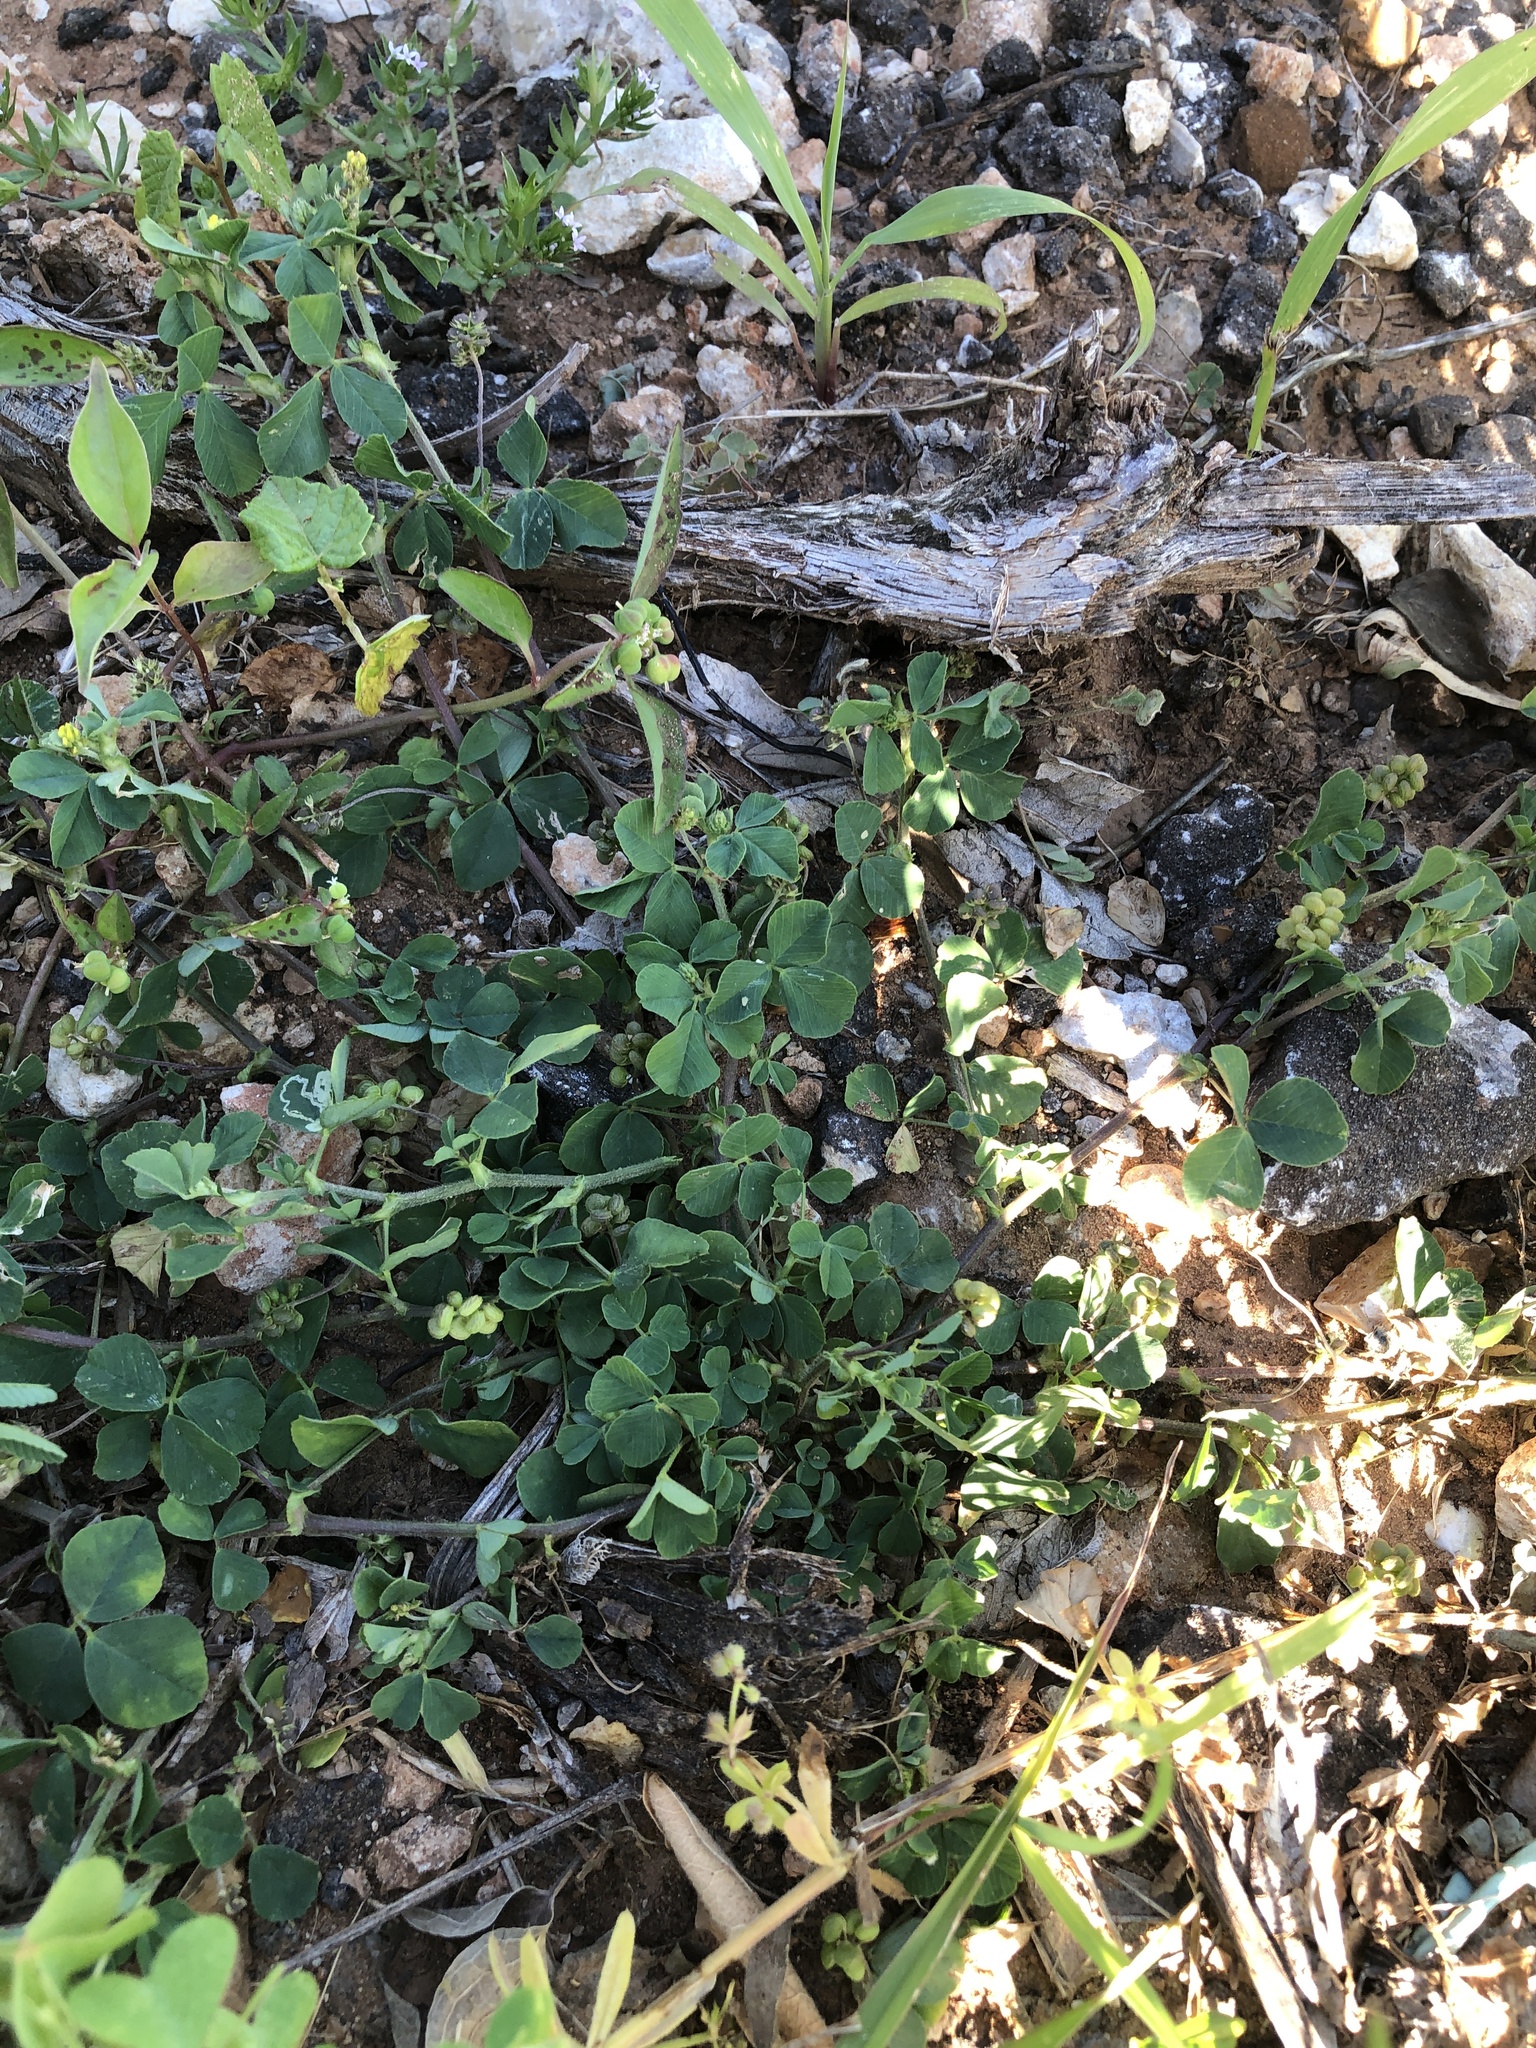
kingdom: Plantae
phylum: Tracheophyta
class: Magnoliopsida
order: Fabales
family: Fabaceae
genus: Medicago
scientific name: Medicago lupulina
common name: Black medick
